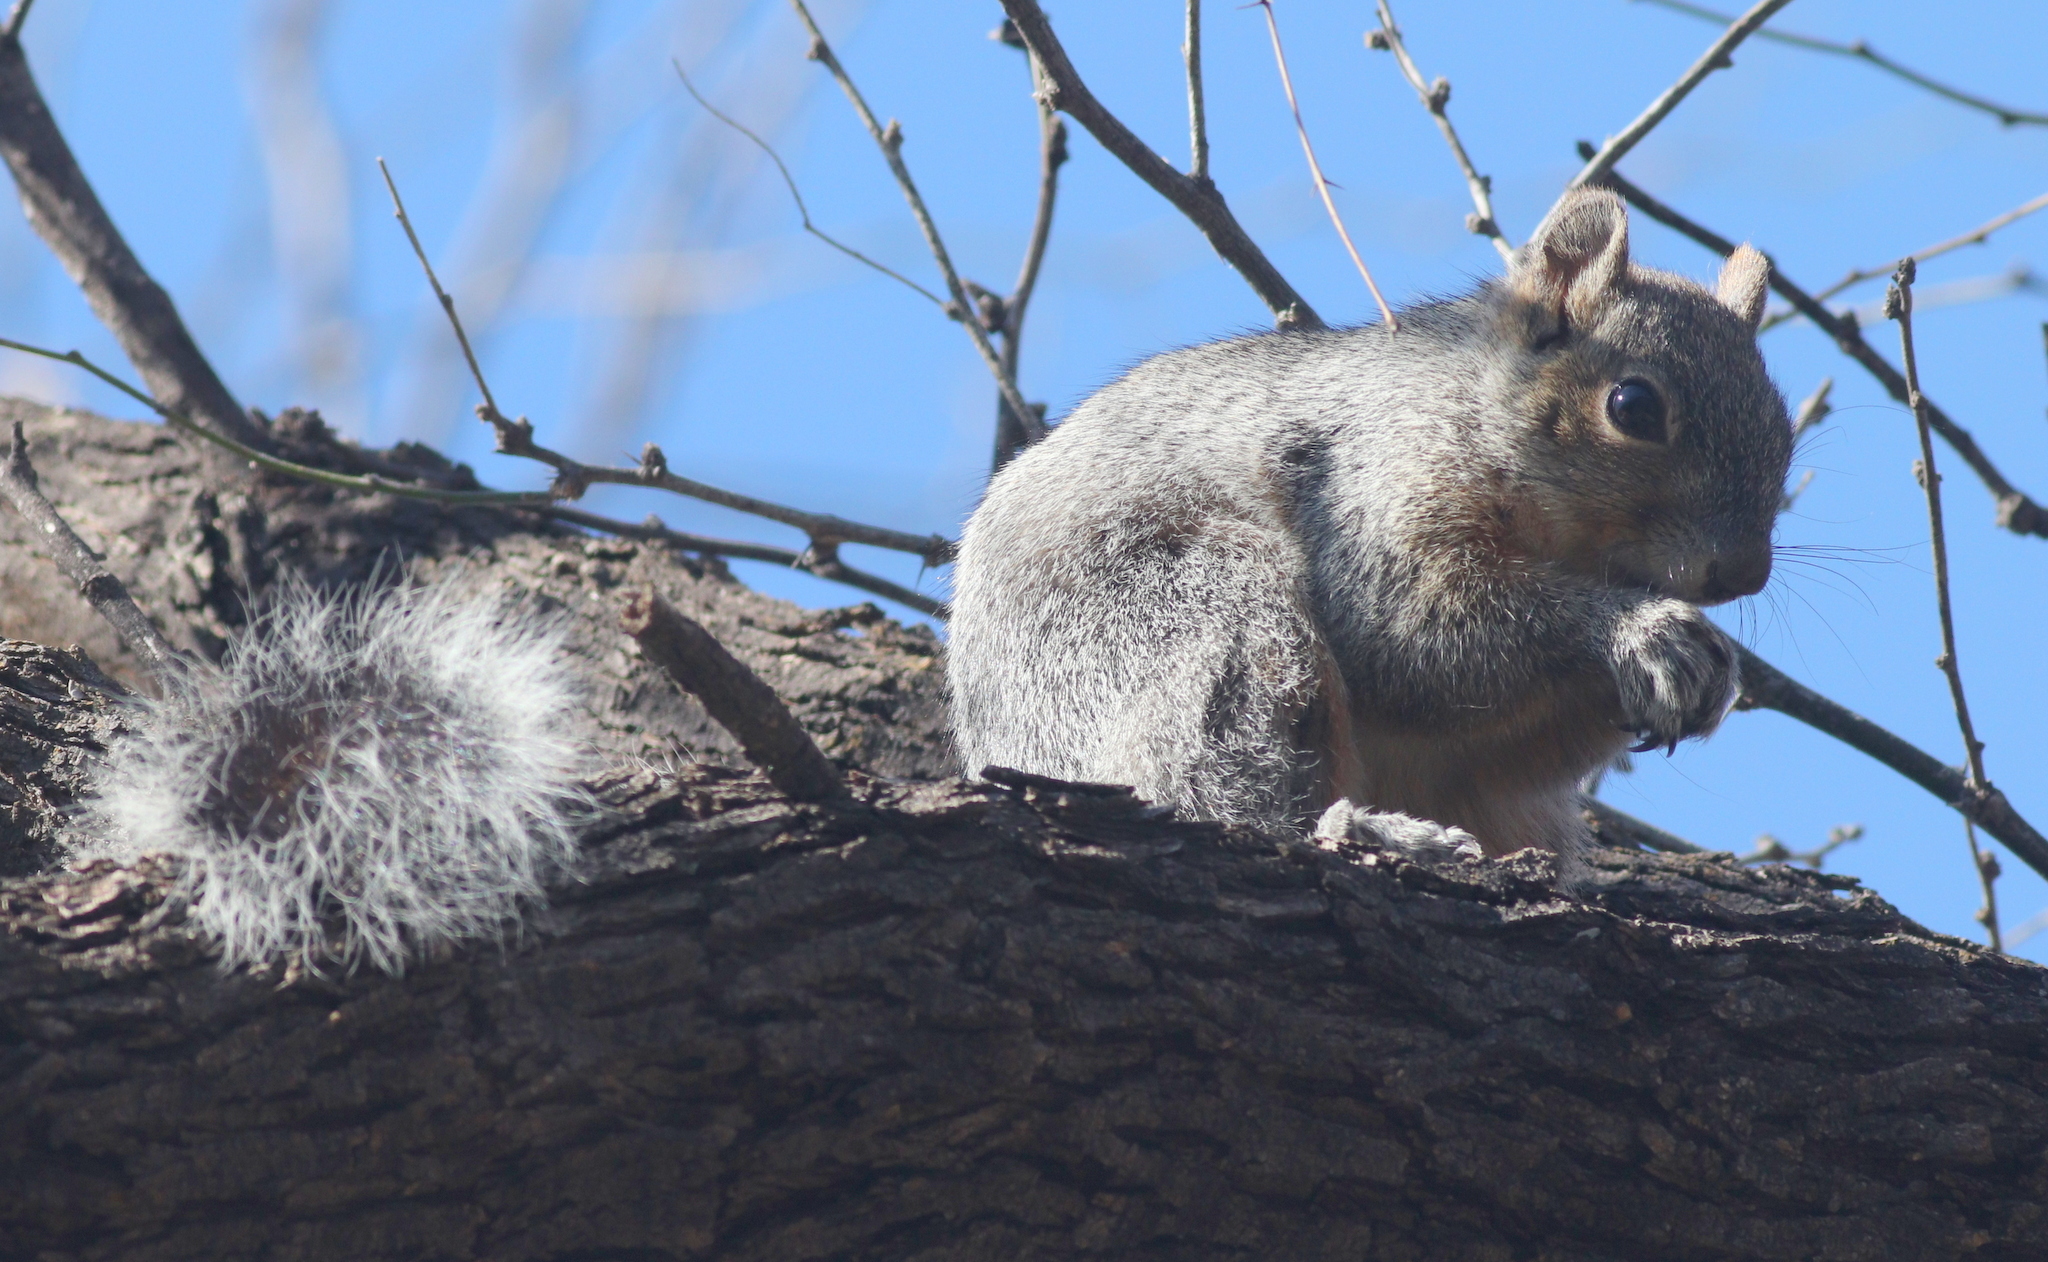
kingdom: Animalia
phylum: Chordata
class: Mammalia
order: Rodentia
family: Sciuridae
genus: Sciurus
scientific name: Sciurus arizonensis
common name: Arizona gray squirrel
